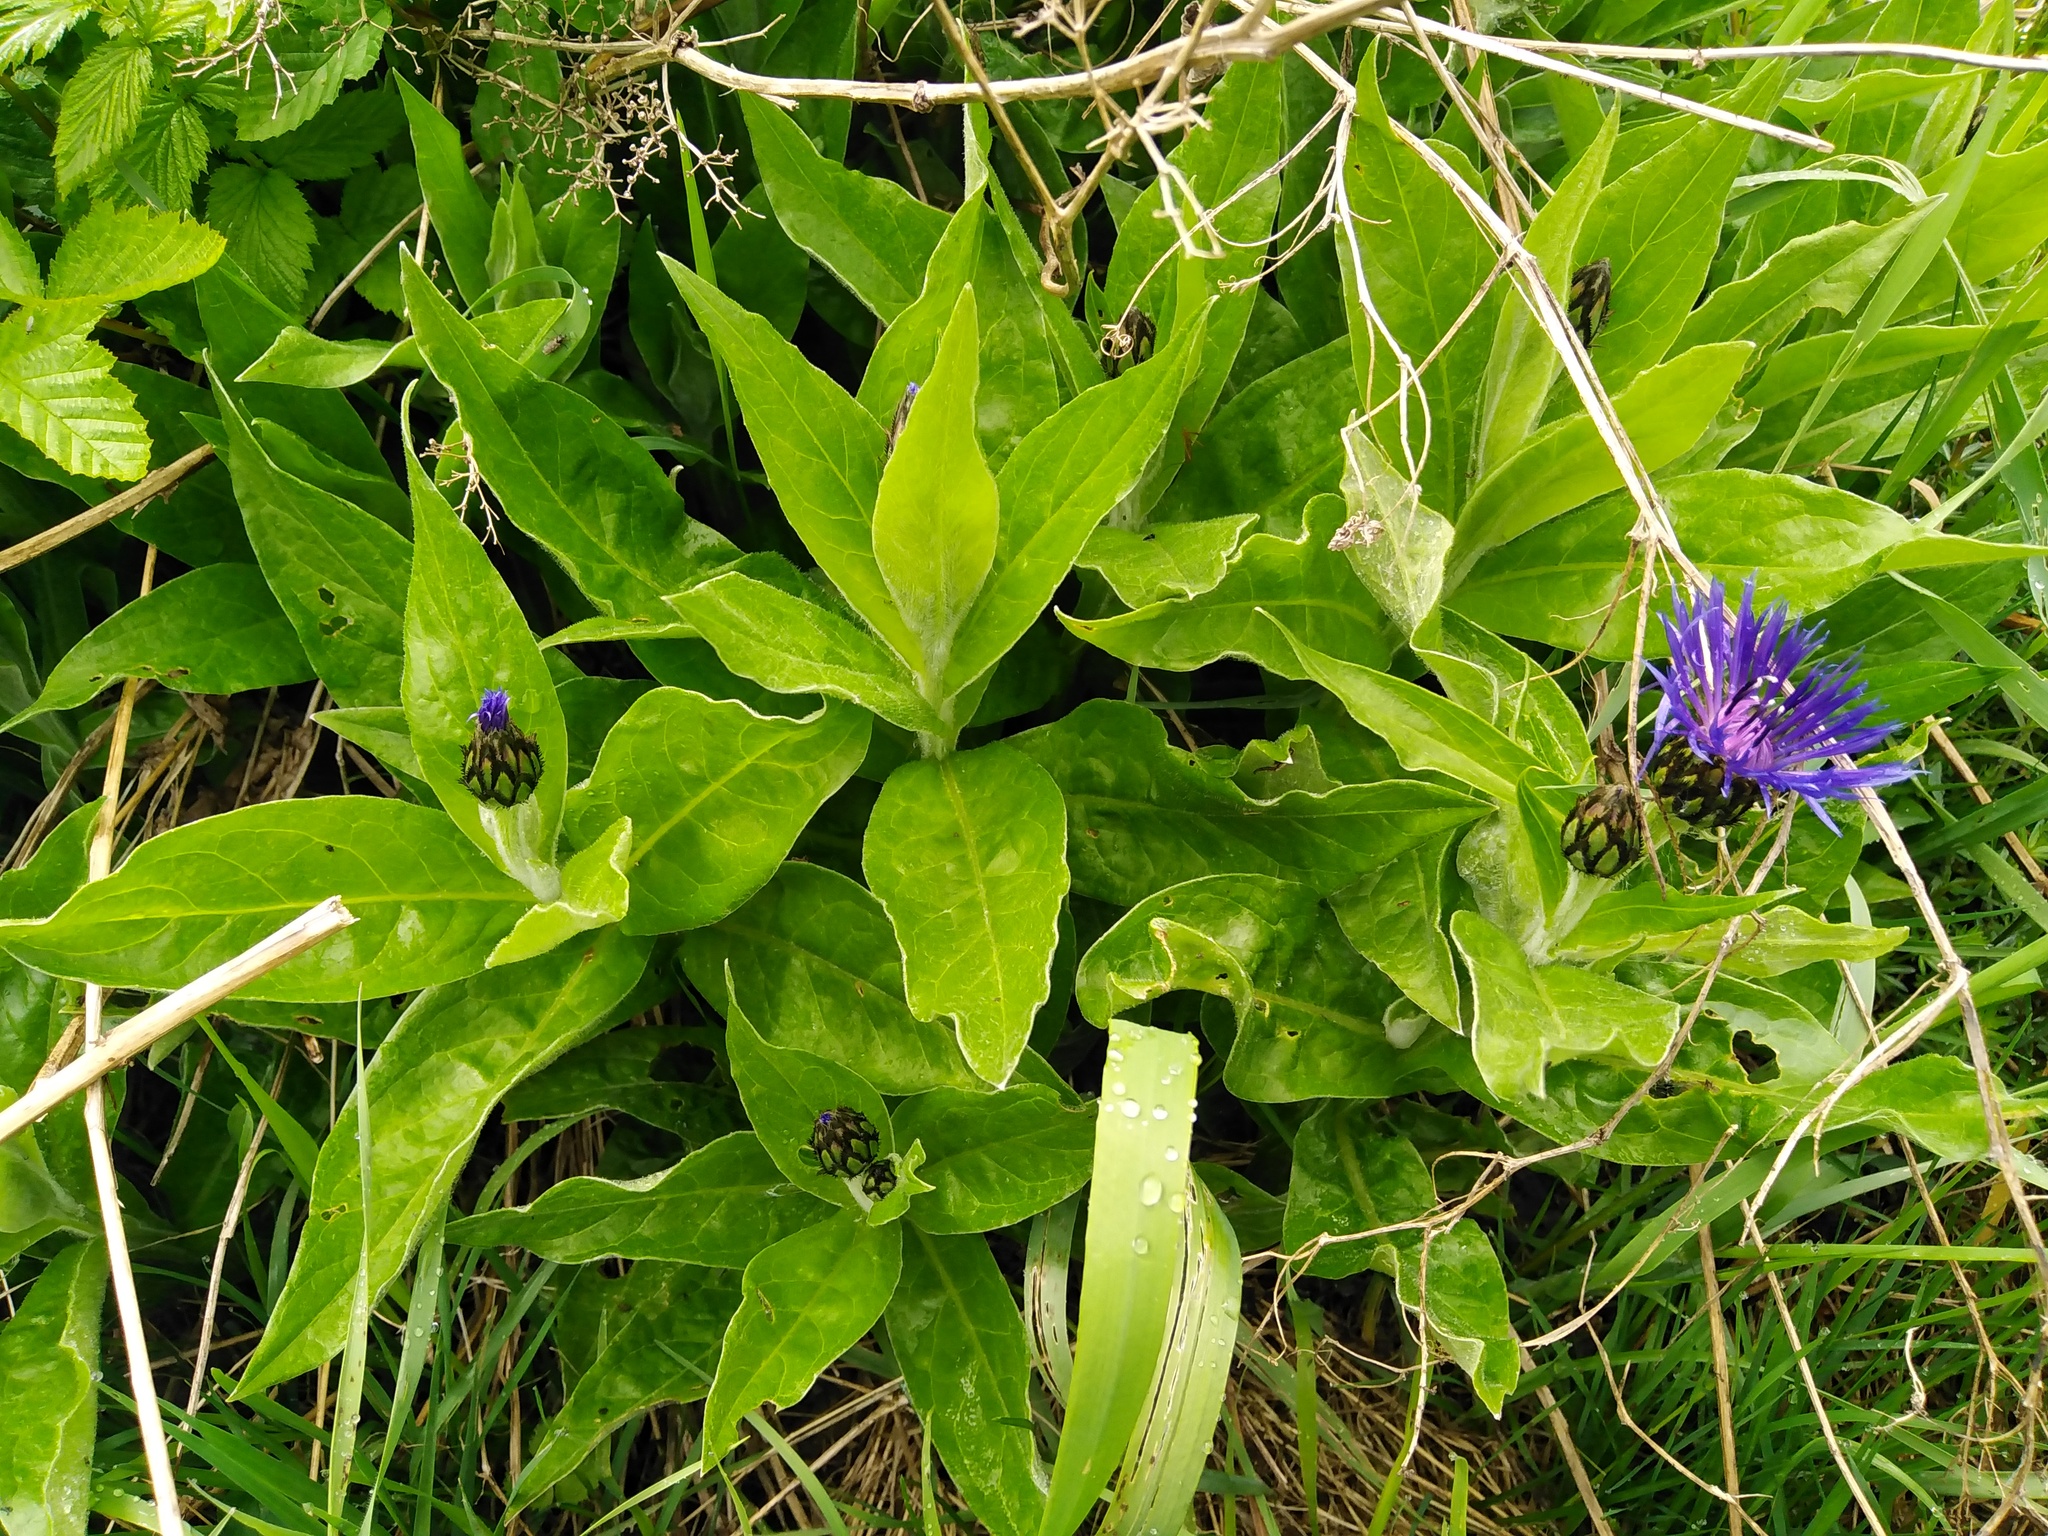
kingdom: Plantae
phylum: Tracheophyta
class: Magnoliopsida
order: Asterales
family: Asteraceae
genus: Centaurea
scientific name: Centaurea montana
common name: Perennial cornflower
